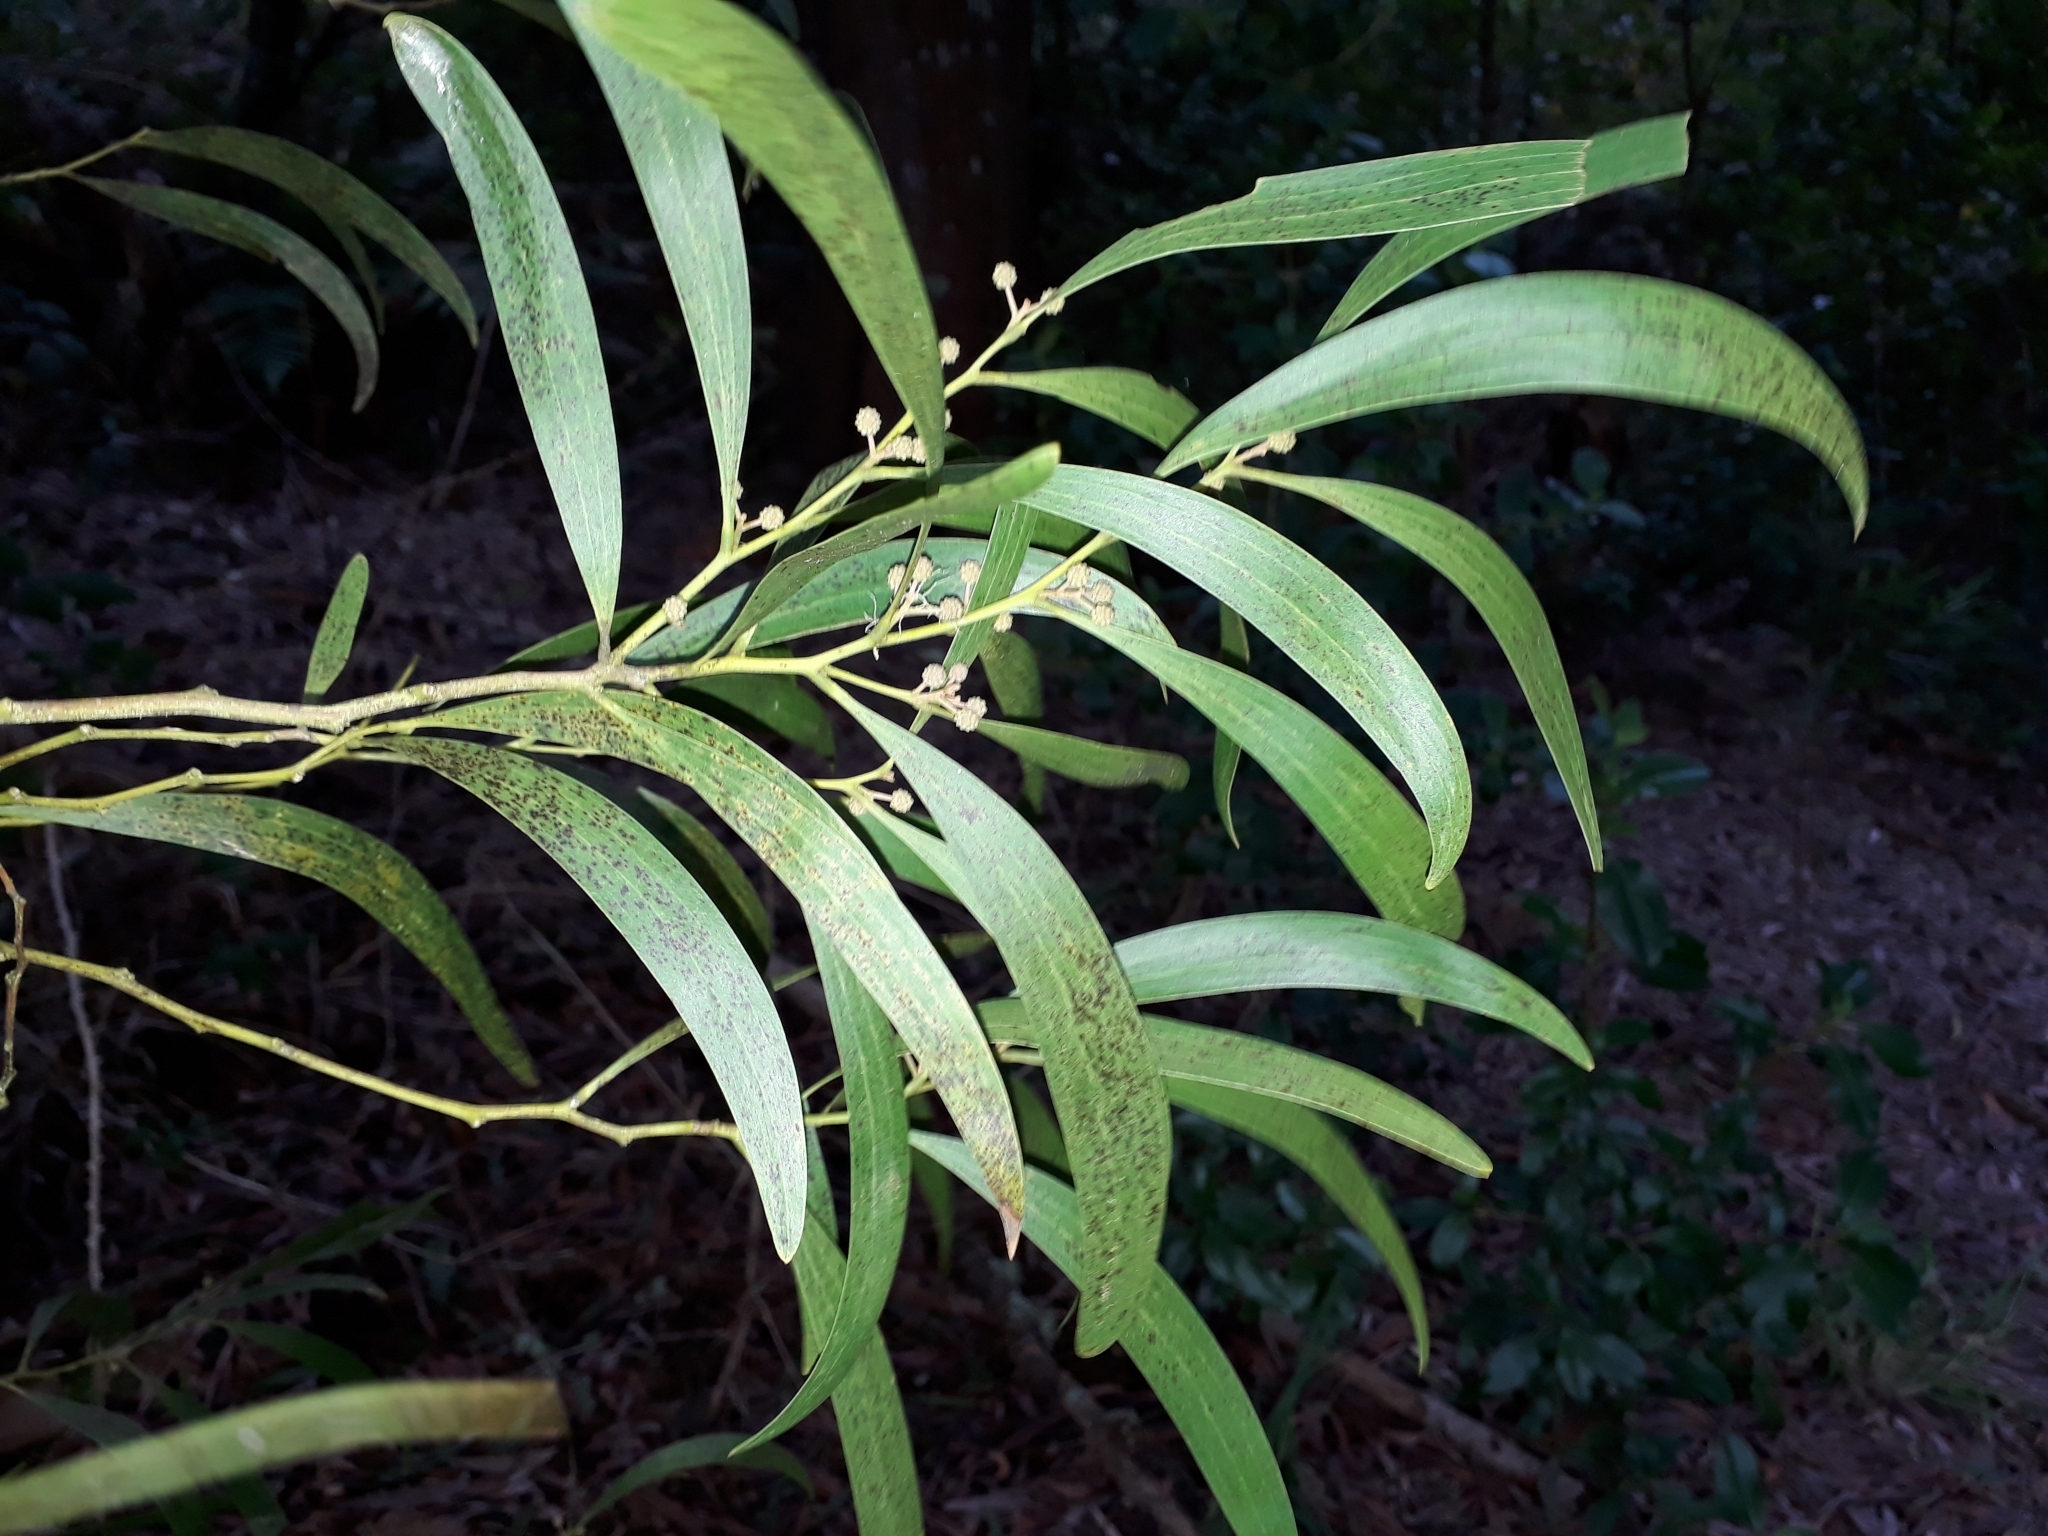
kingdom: Plantae
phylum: Tracheophyta
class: Magnoliopsida
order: Fabales
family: Fabaceae
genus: Acacia
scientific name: Acacia melanoxylon
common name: Blackwood
